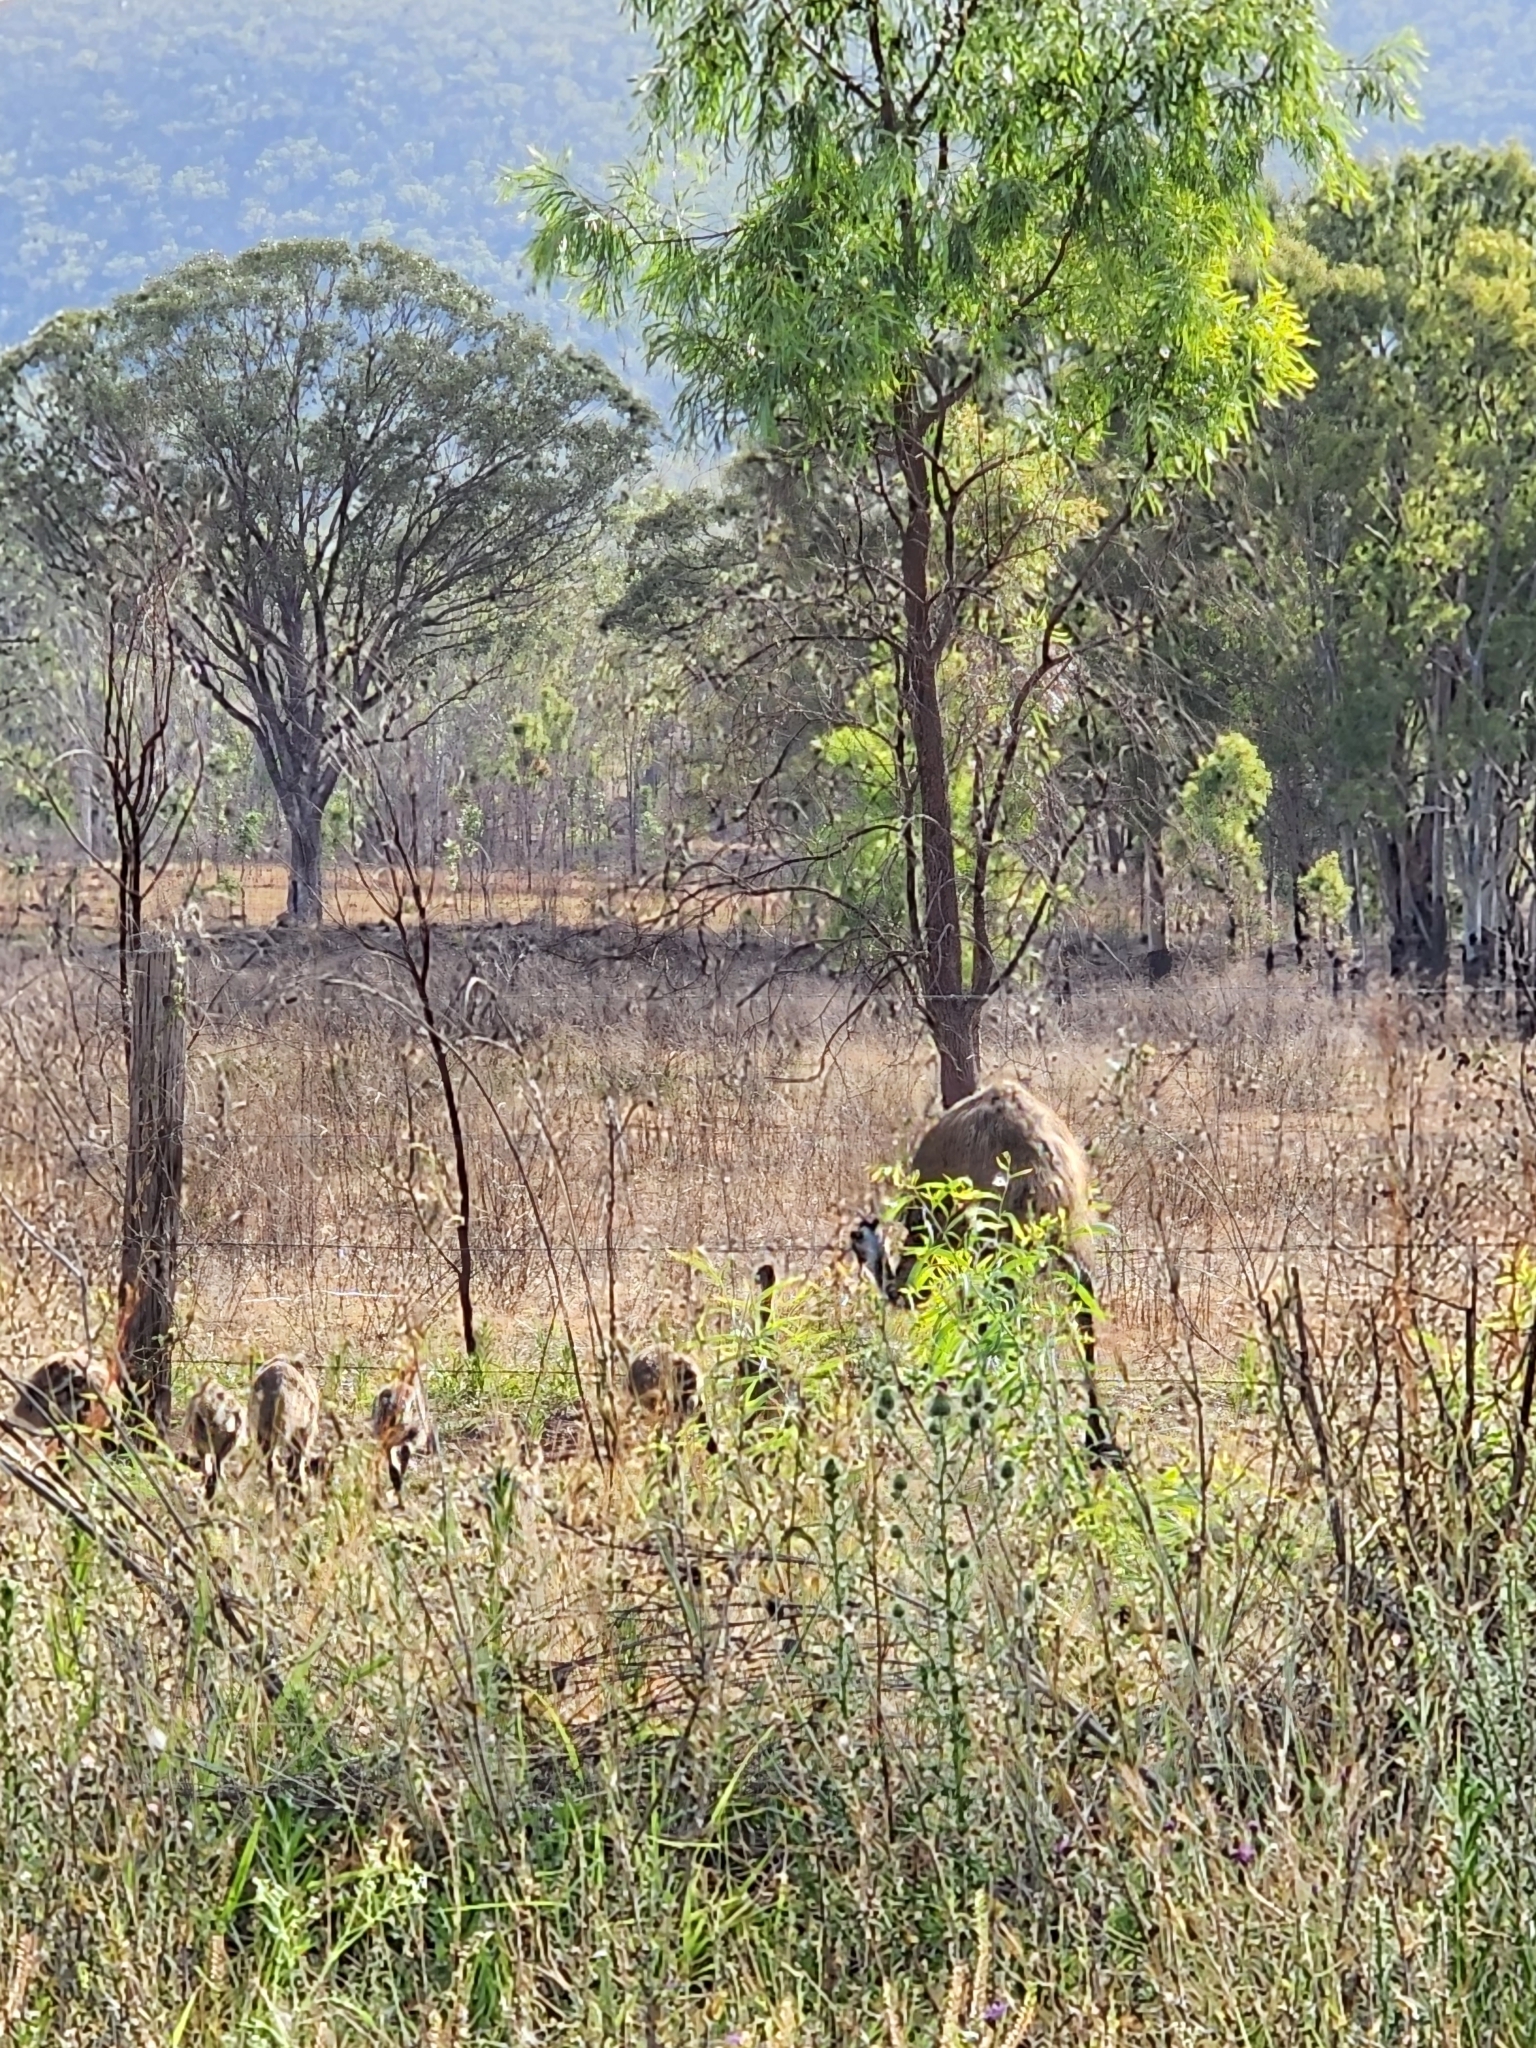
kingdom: Animalia
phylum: Chordata
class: Aves
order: Casuariiformes
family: Dromaiidae
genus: Dromaius
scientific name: Dromaius novaehollandiae
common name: Emu
